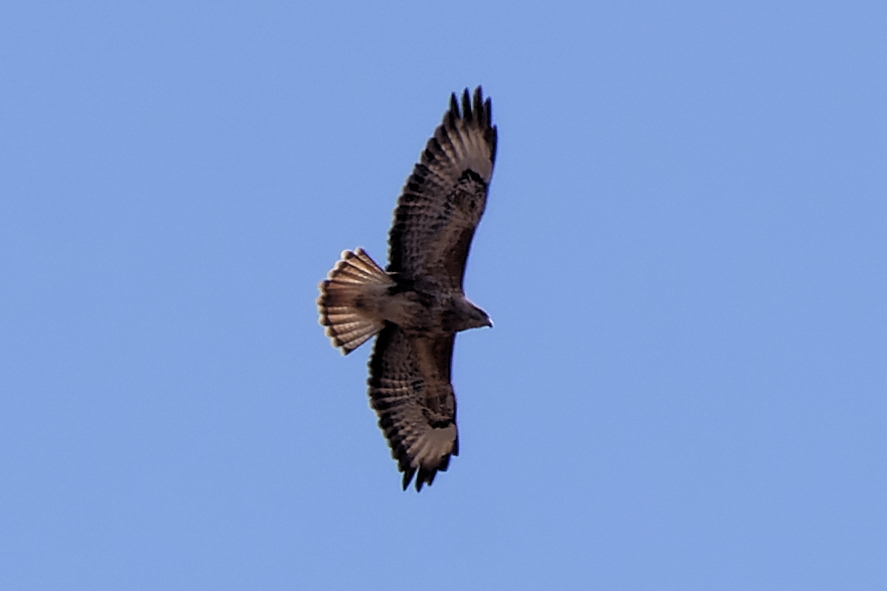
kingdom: Animalia
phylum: Chordata
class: Aves
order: Accipitriformes
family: Accipitridae
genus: Buteo
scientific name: Buteo buteo
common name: Common buzzard
